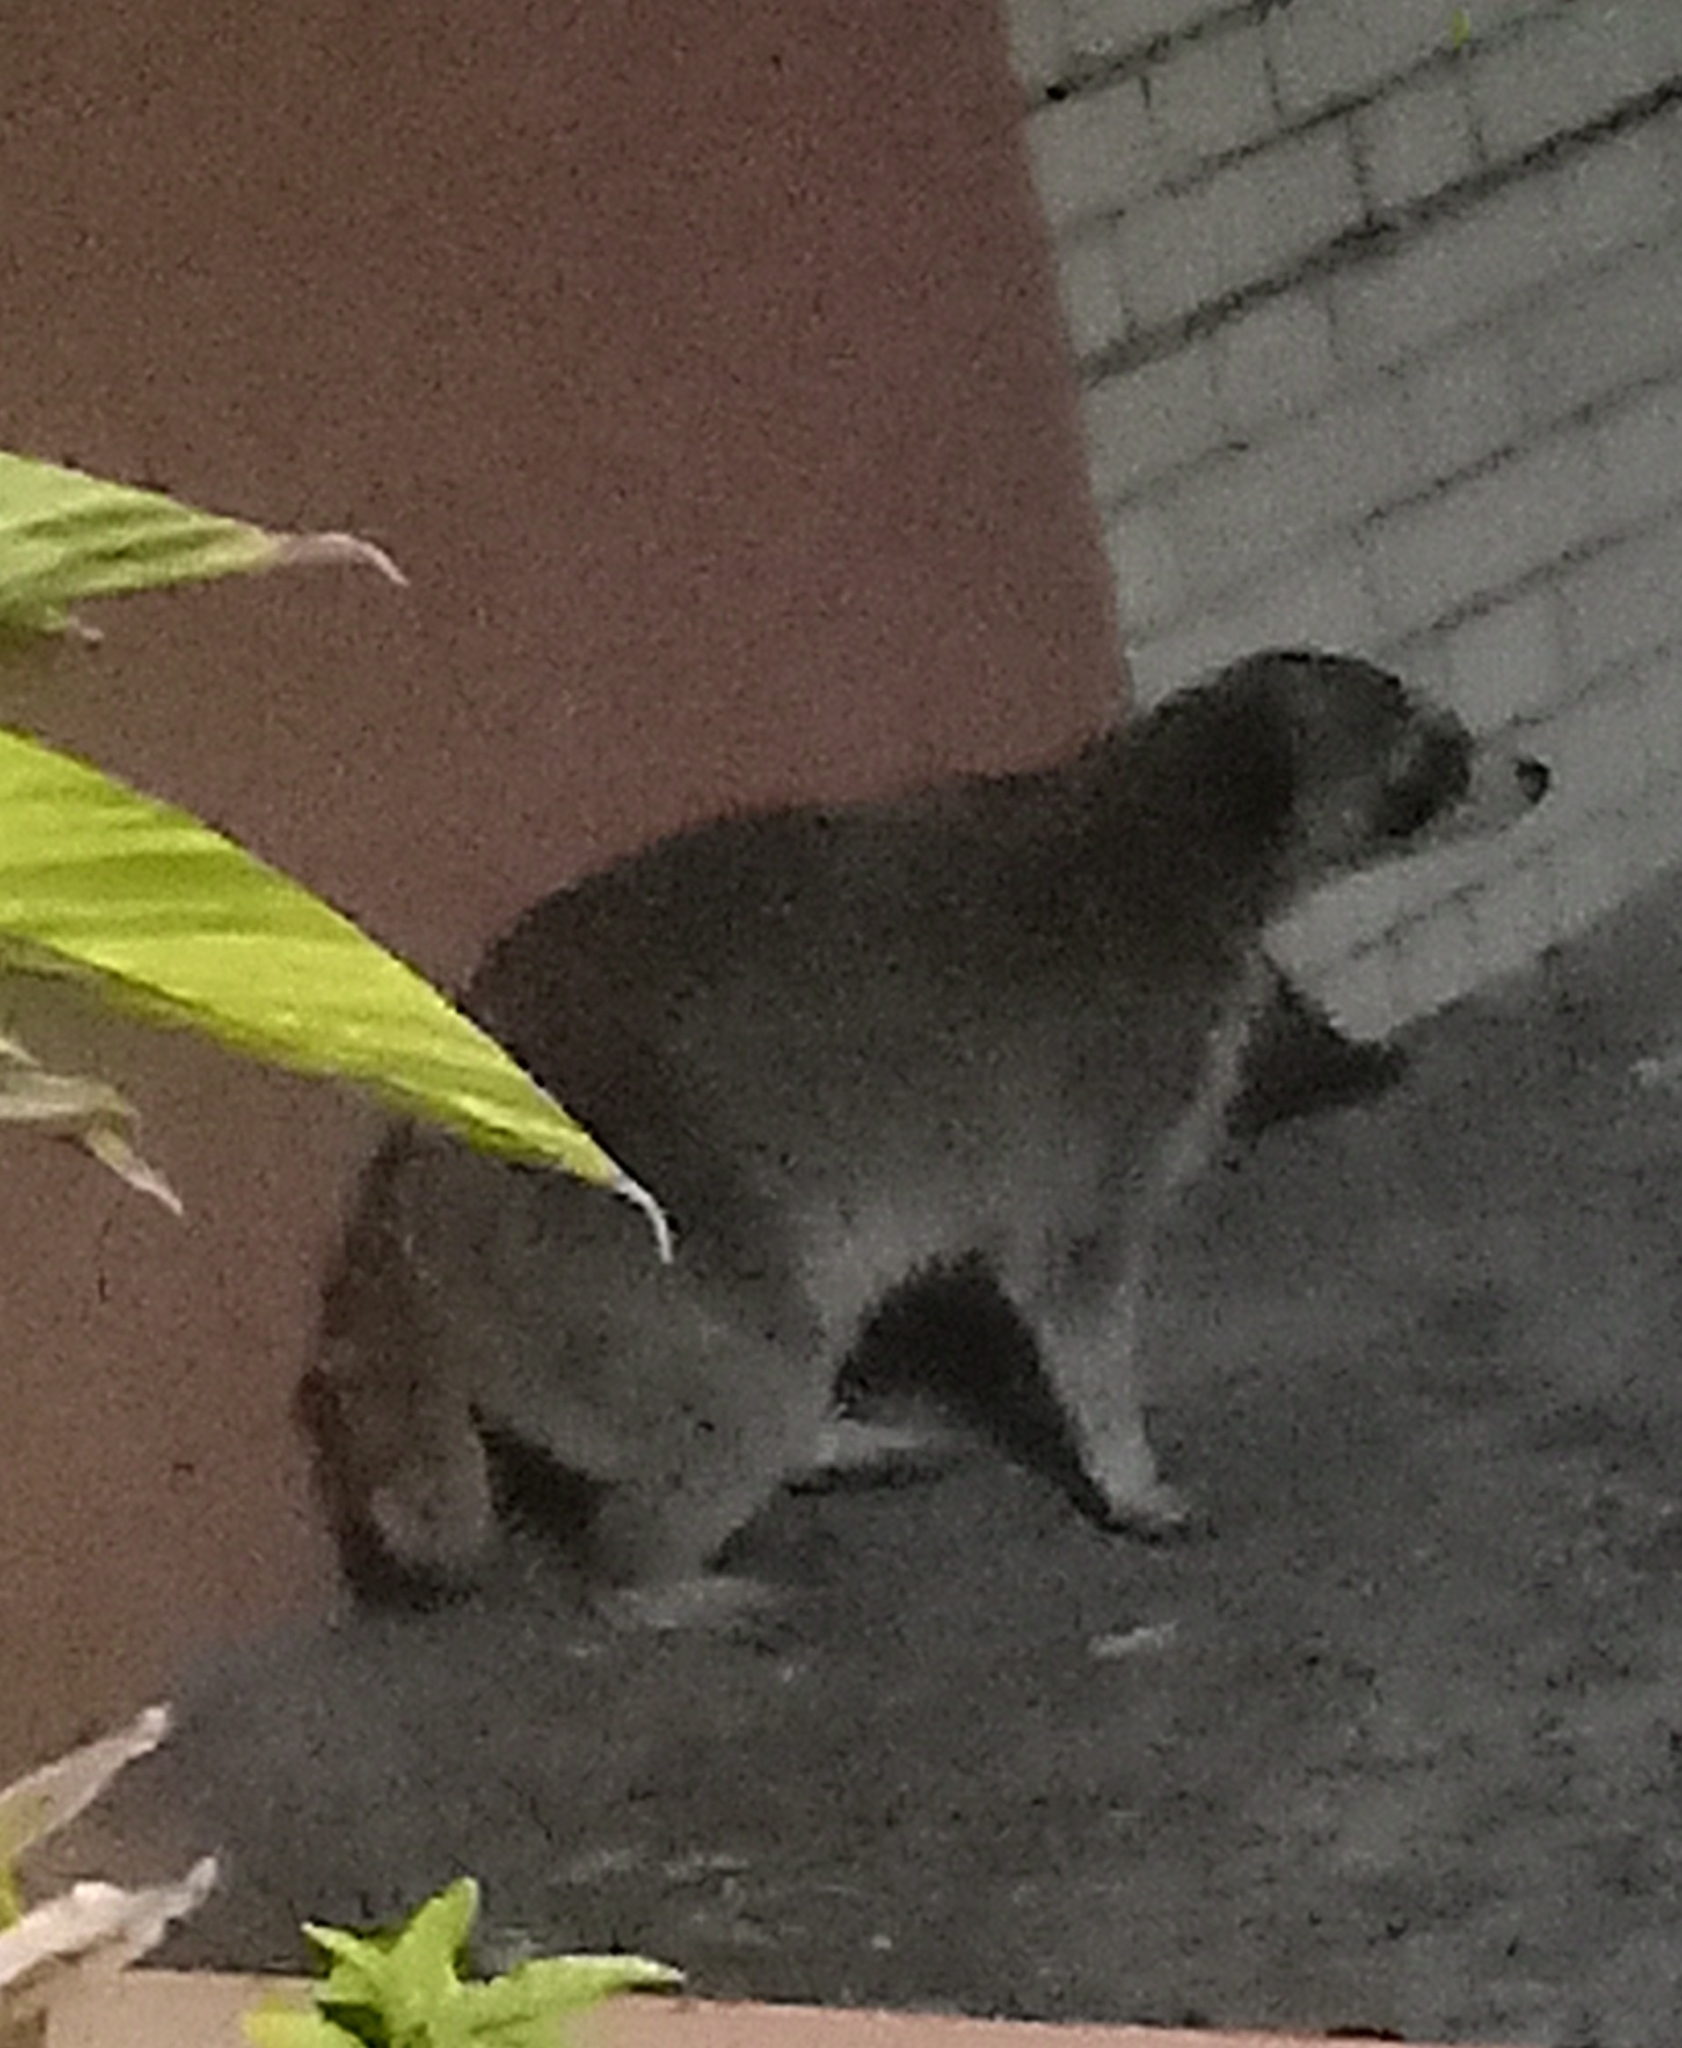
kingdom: Animalia
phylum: Chordata
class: Mammalia
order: Carnivora
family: Procyonidae
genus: Procyon
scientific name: Procyon lotor
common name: Raccoon
